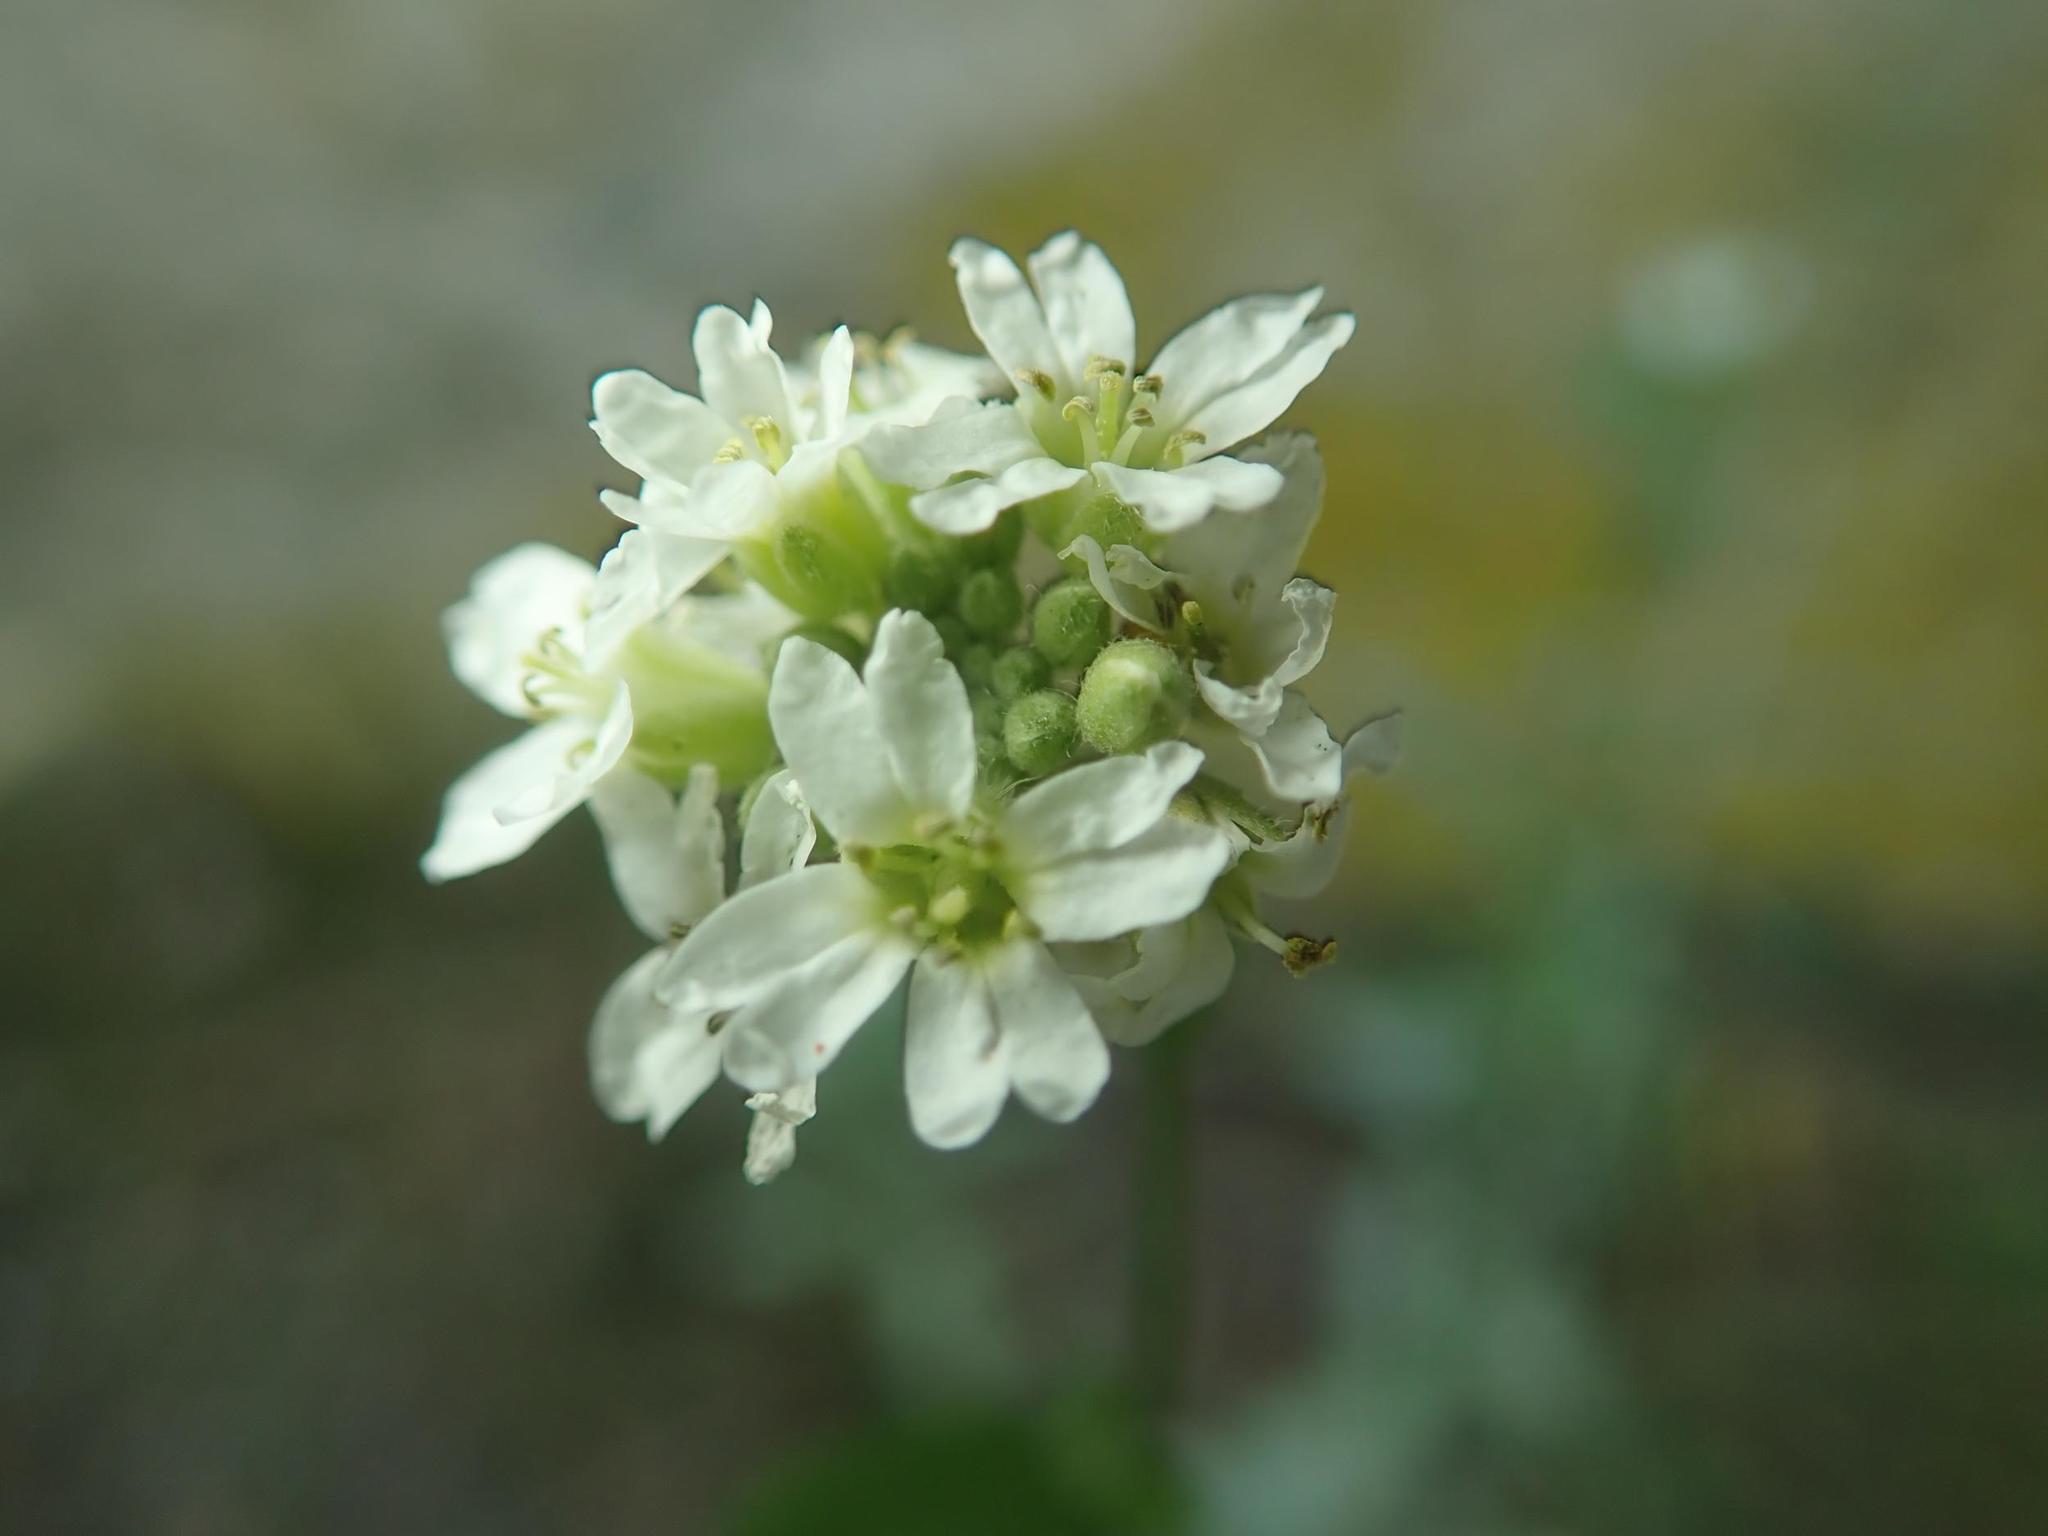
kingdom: Plantae
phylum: Tracheophyta
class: Magnoliopsida
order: Brassicales
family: Brassicaceae
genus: Berteroa
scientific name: Berteroa incana
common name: Hoary alison
